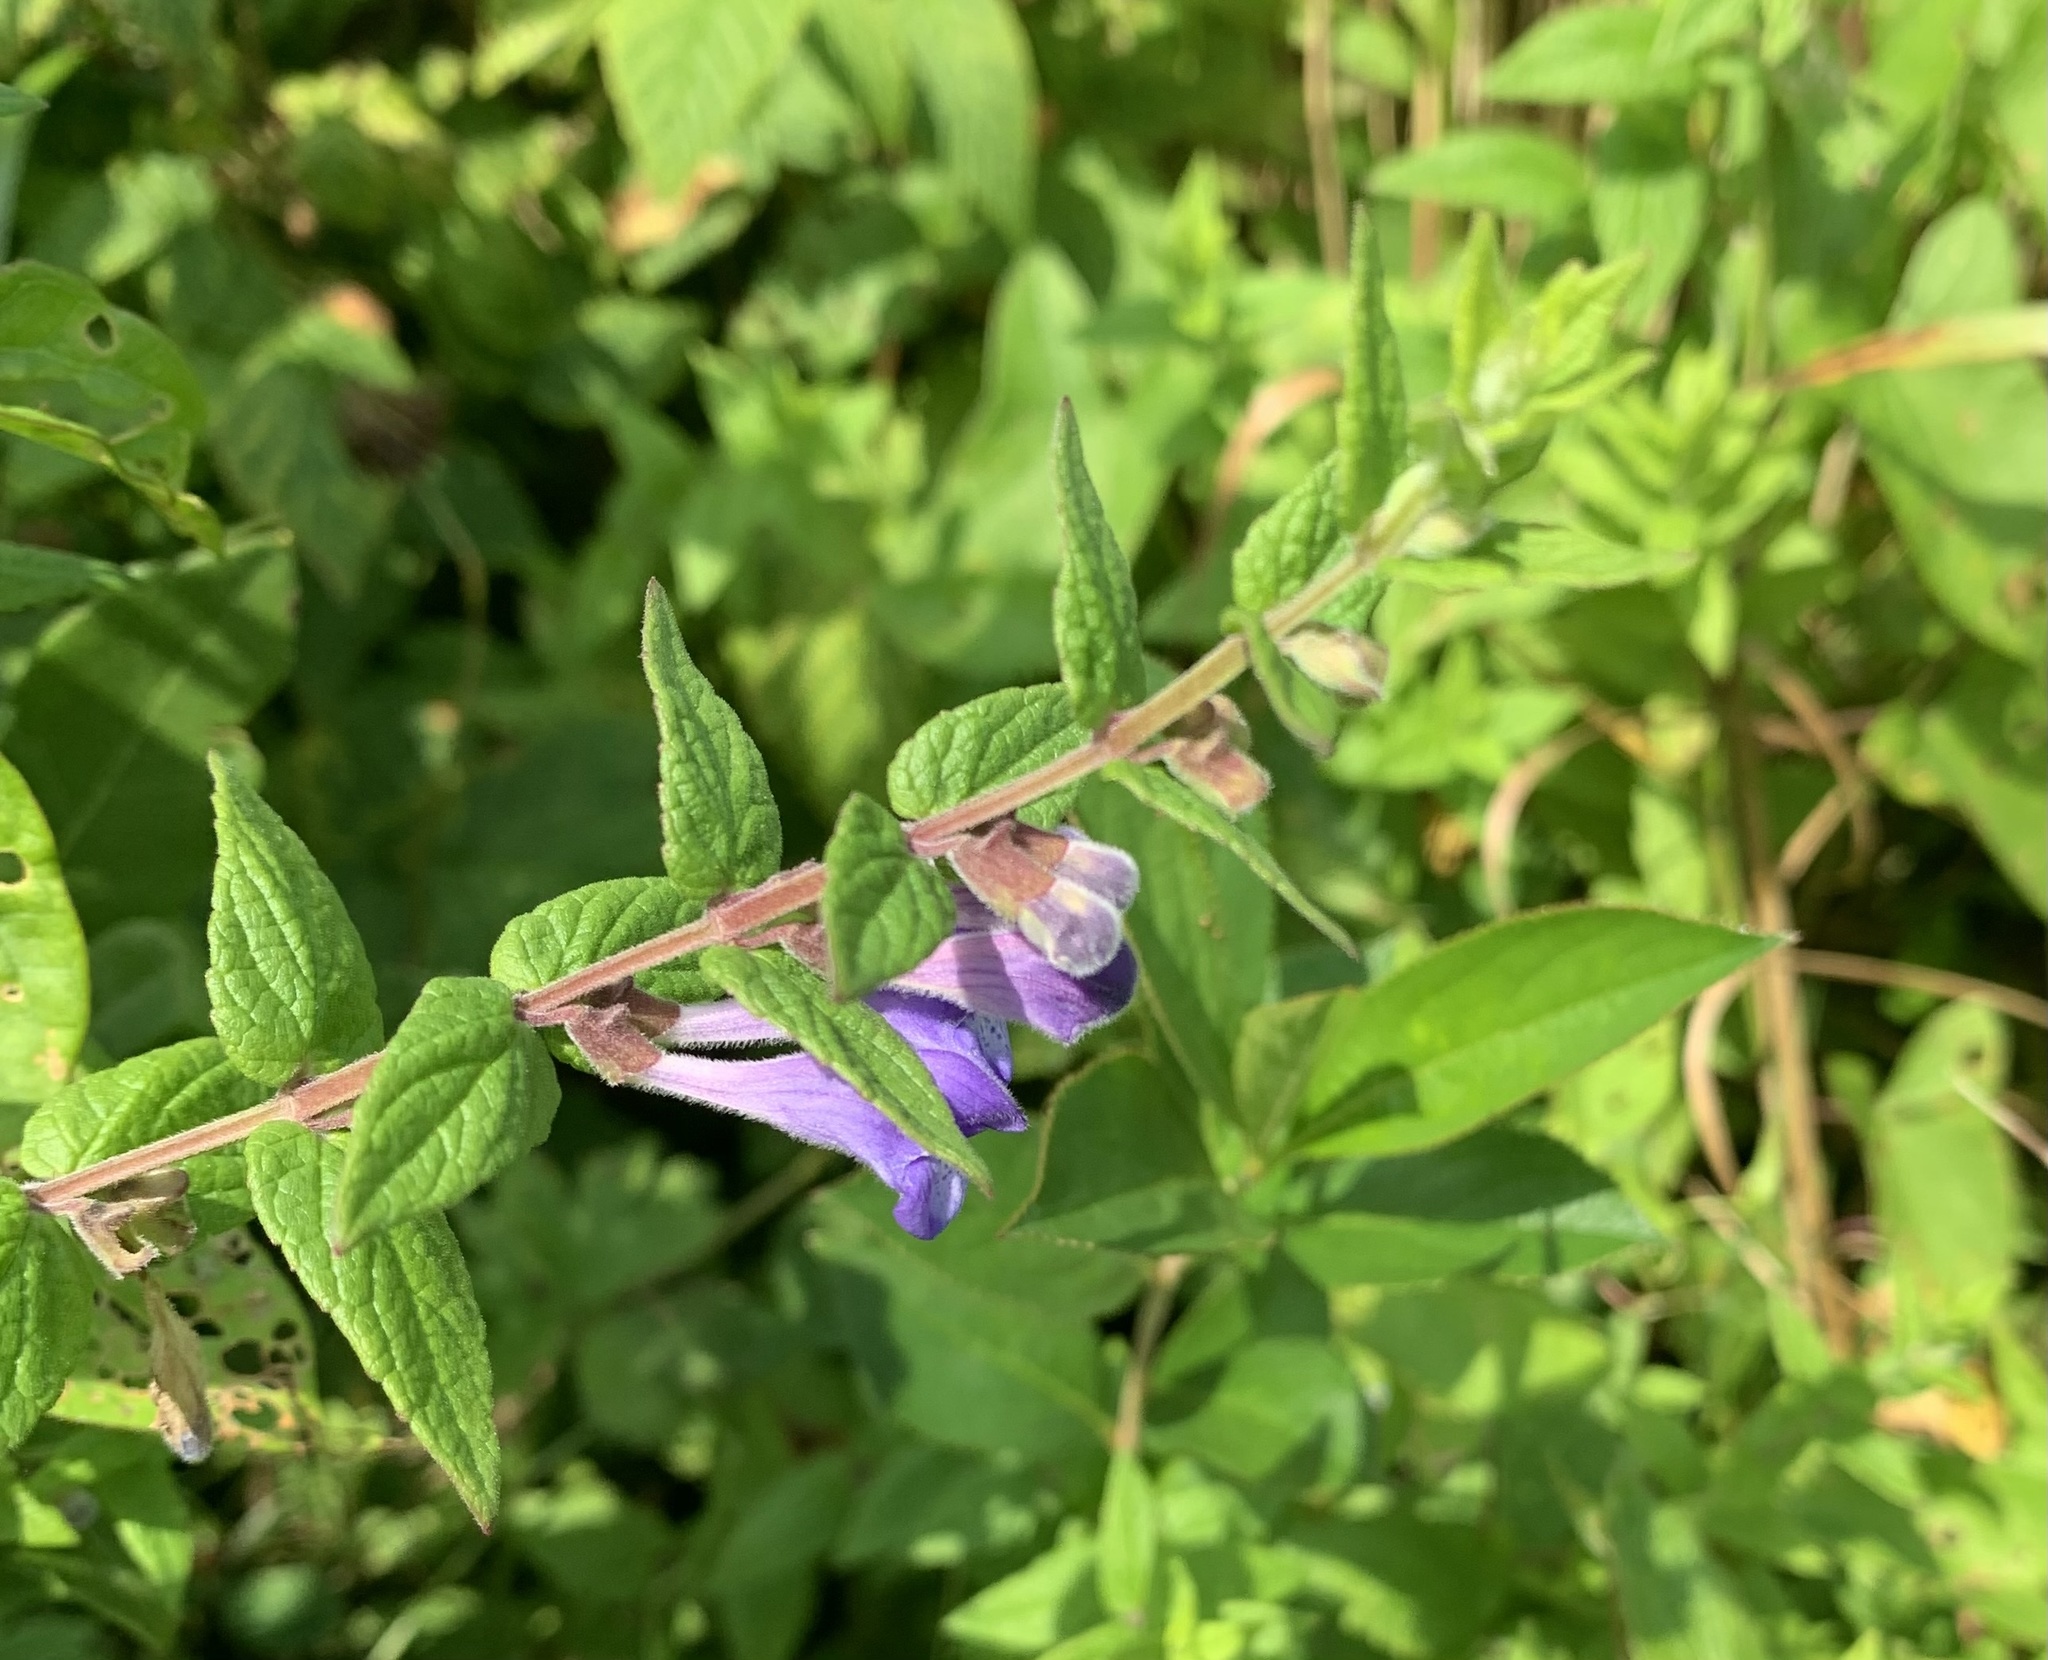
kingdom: Plantae
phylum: Tracheophyta
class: Magnoliopsida
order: Lamiales
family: Lamiaceae
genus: Scutellaria
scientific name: Scutellaria galericulata
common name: Skullcap
